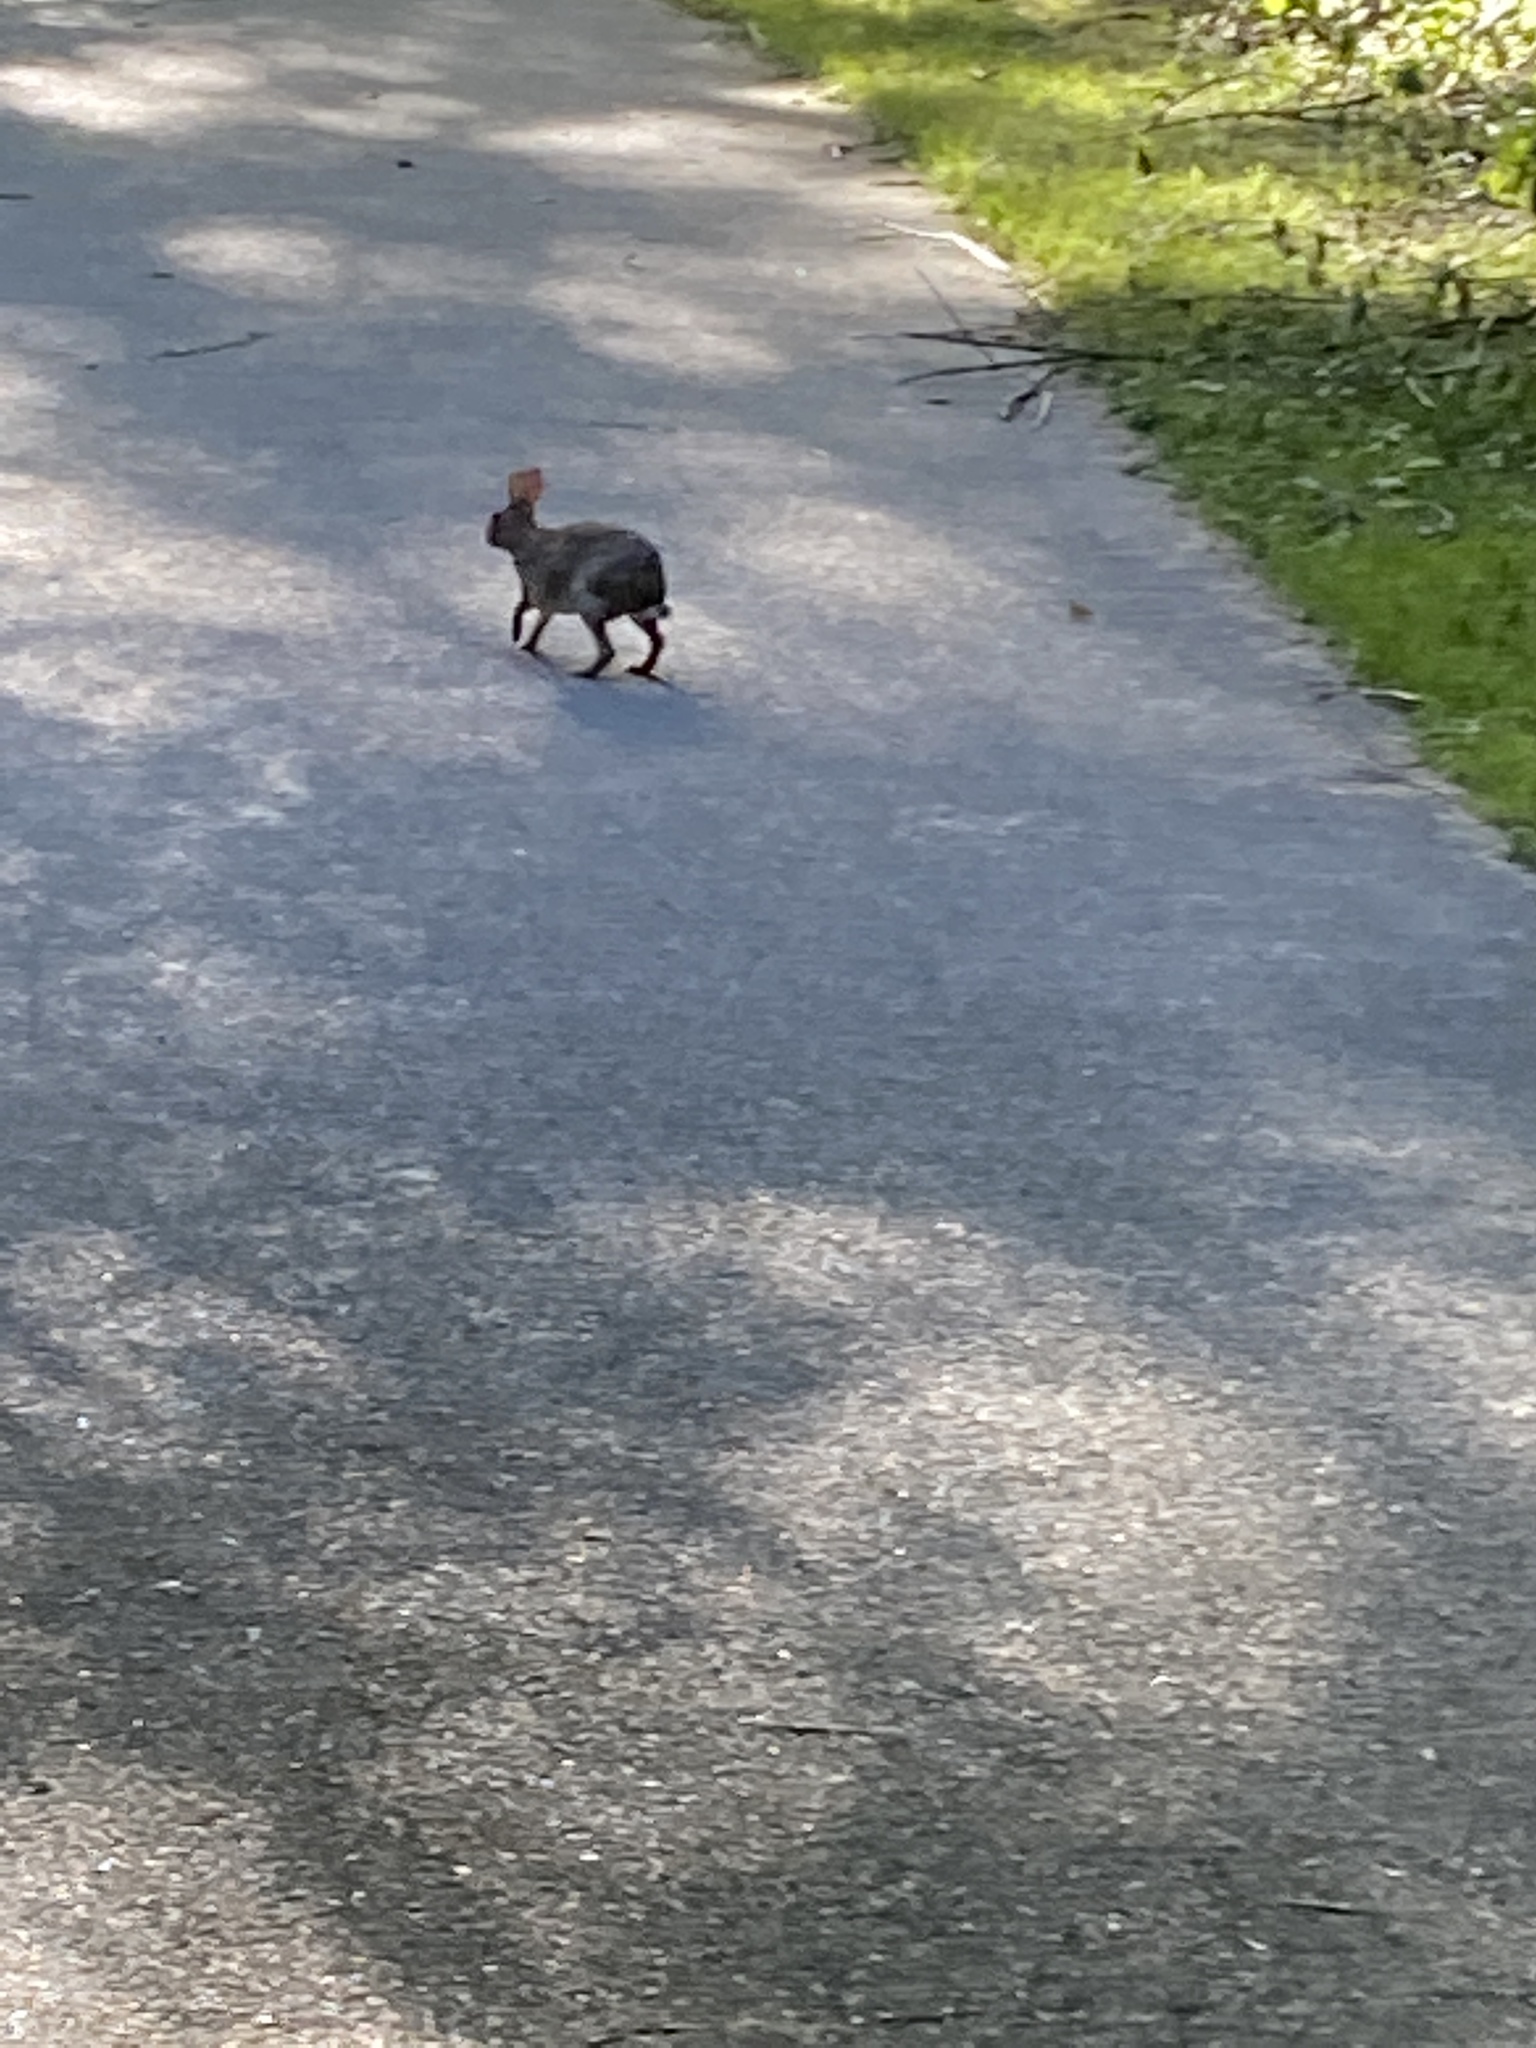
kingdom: Animalia
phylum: Chordata
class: Mammalia
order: Lagomorpha
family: Leporidae
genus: Sylvilagus
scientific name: Sylvilagus floridanus
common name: Eastern cottontail
